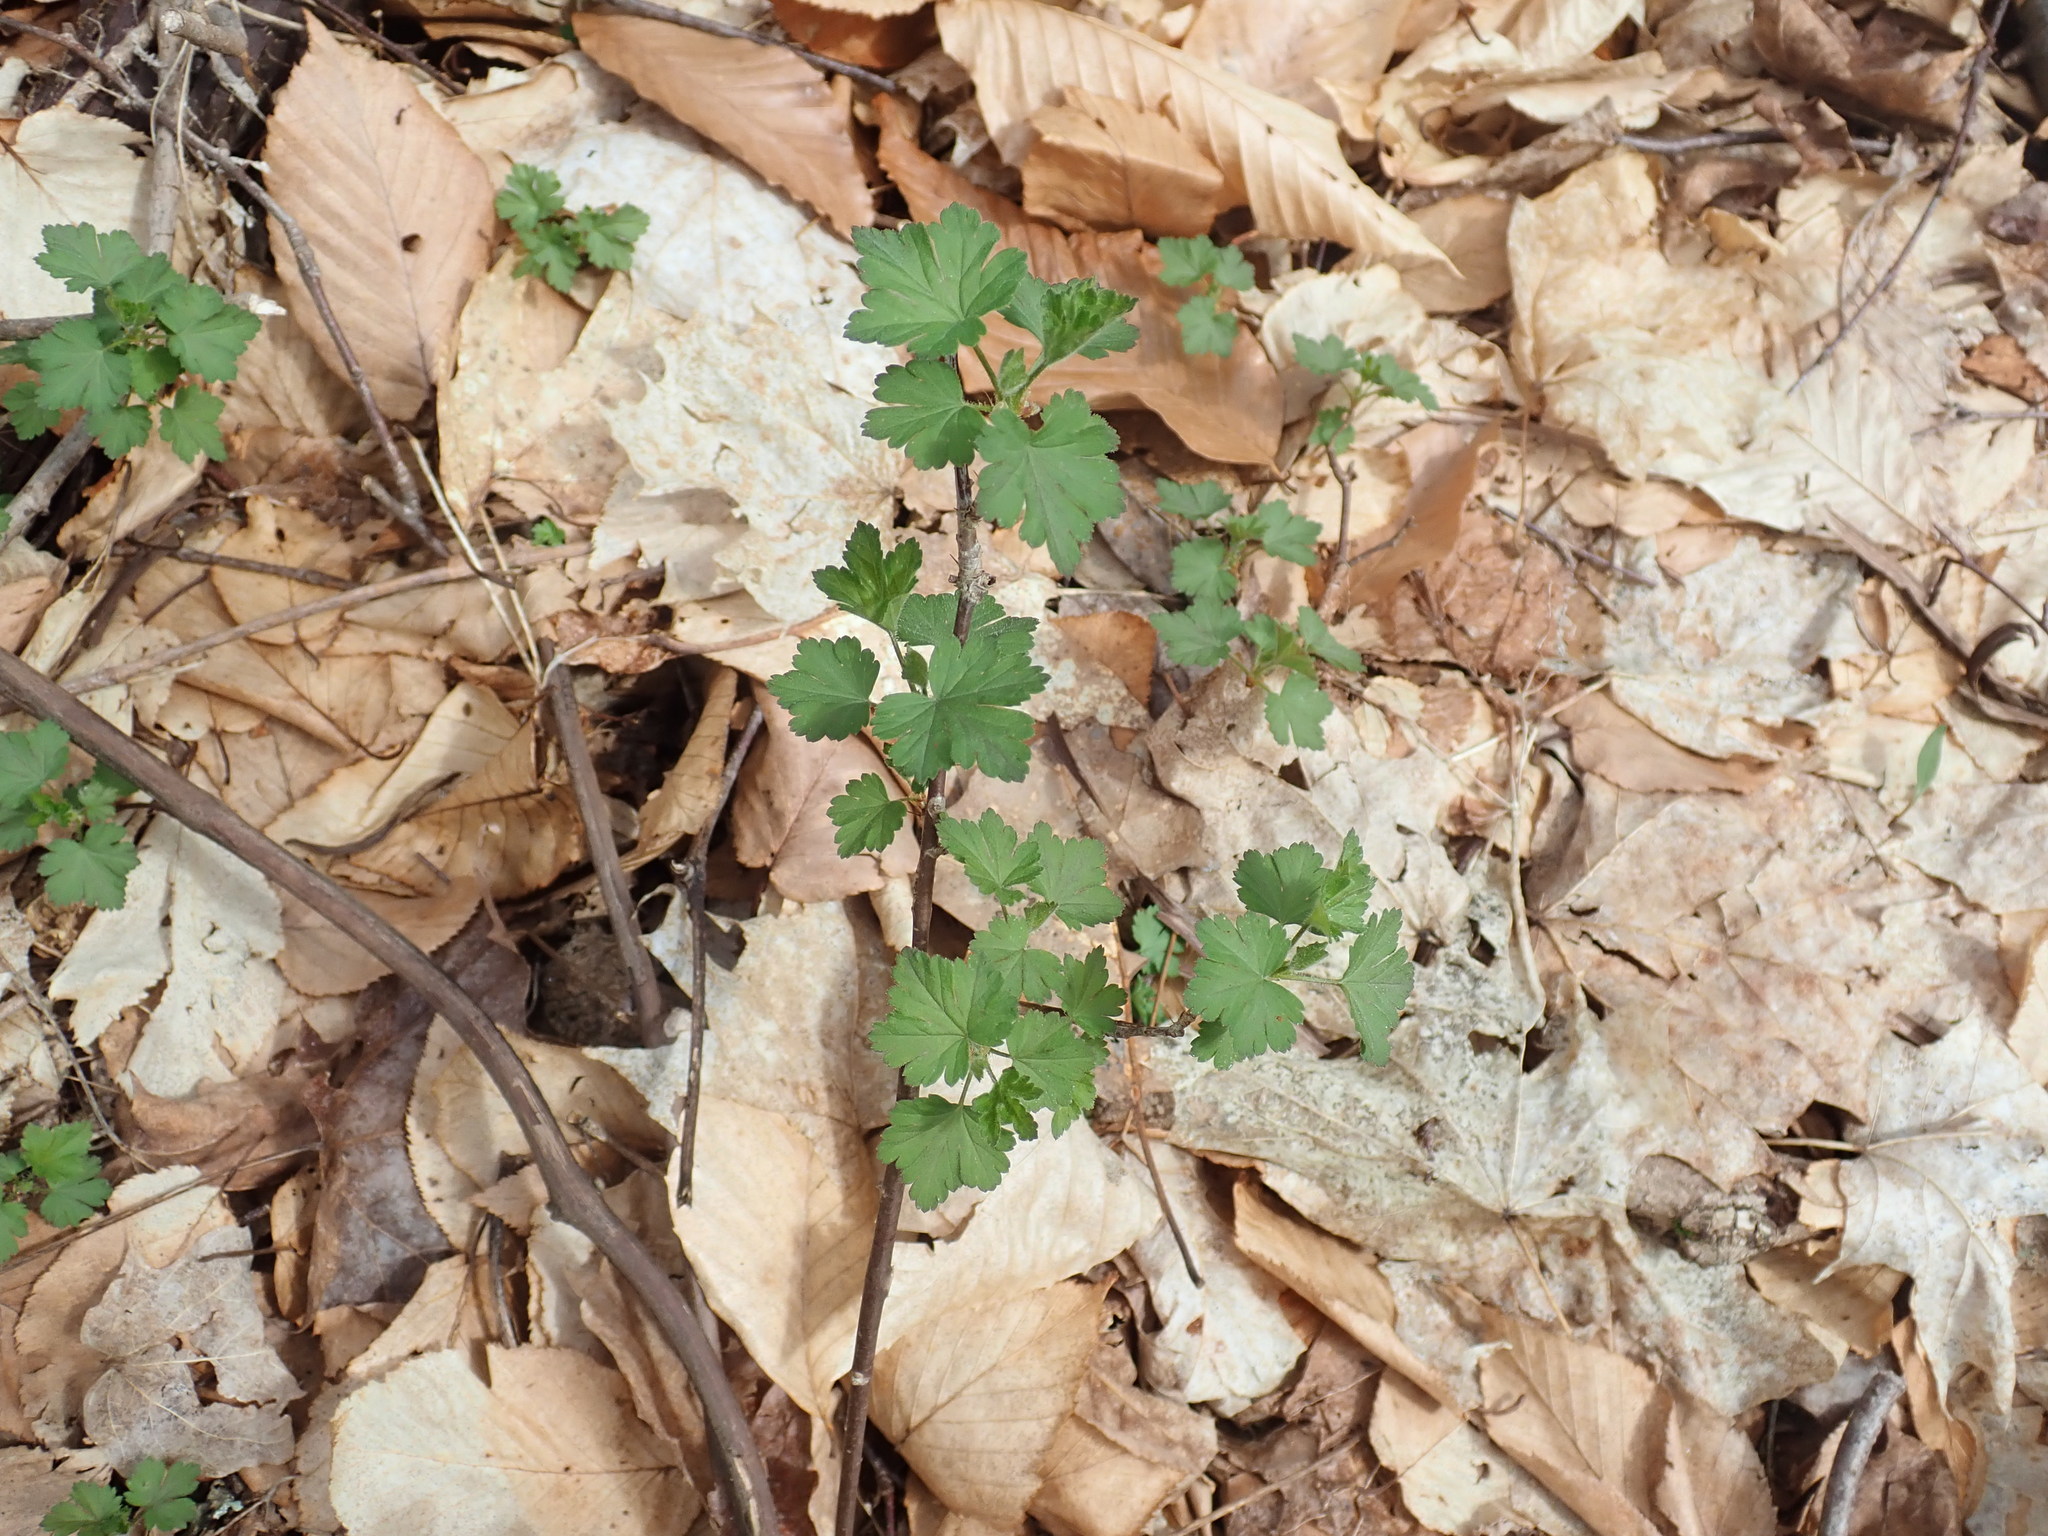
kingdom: Plantae
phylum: Tracheophyta
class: Magnoliopsida
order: Saxifragales
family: Grossulariaceae
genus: Ribes
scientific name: Ribes
